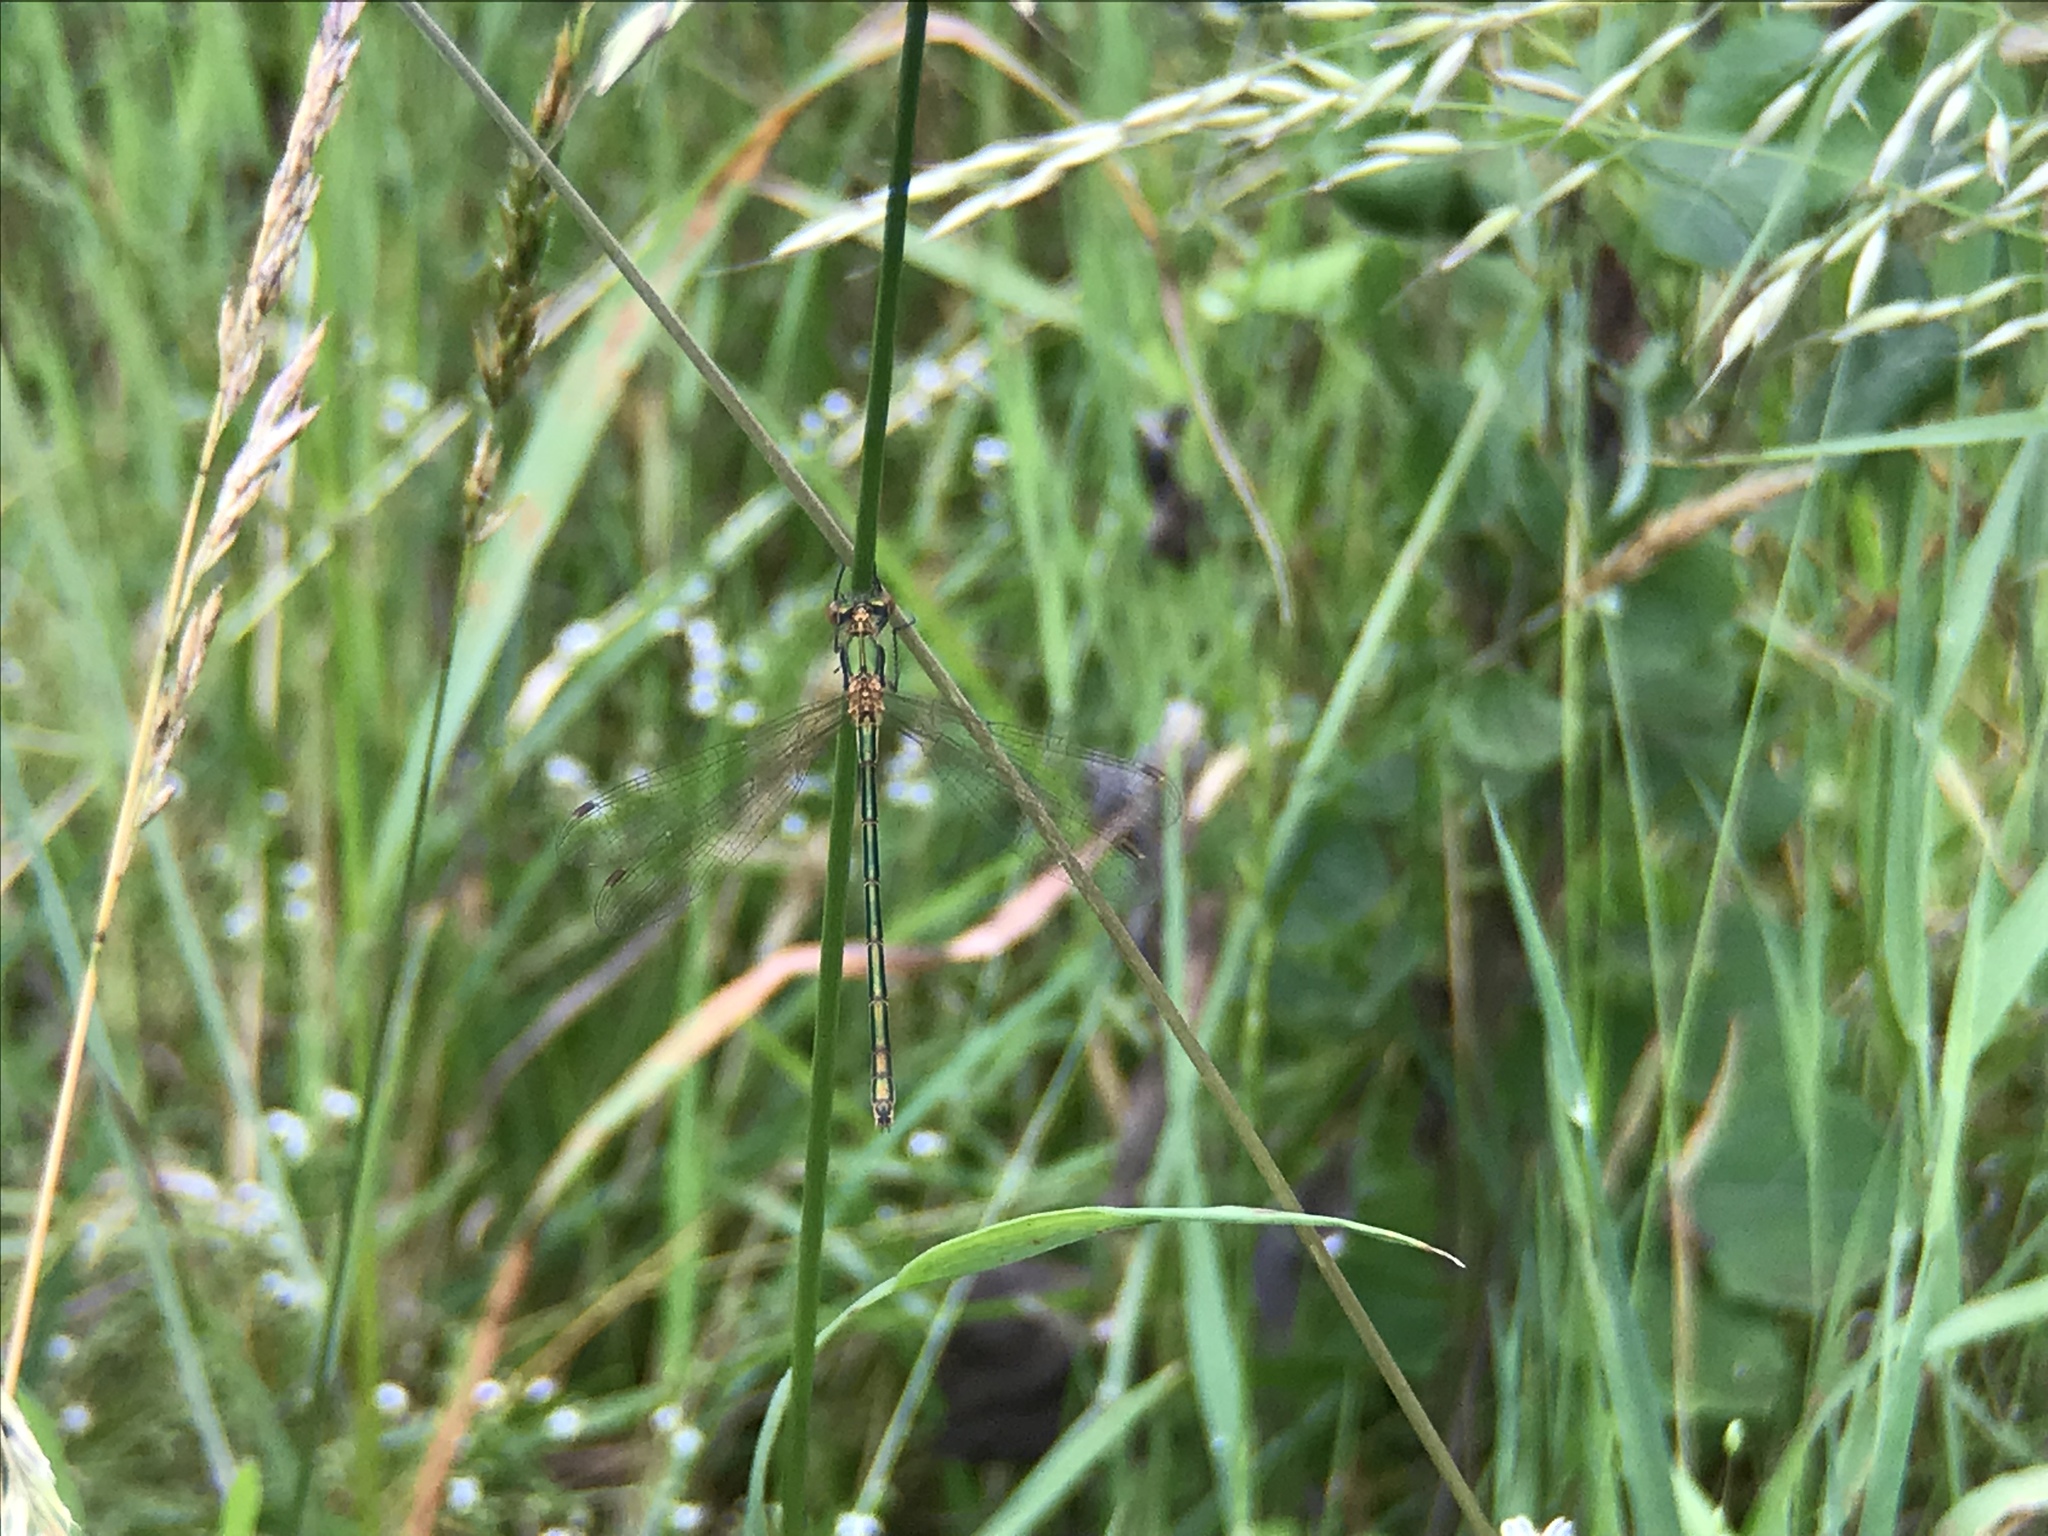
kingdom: Animalia
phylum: Arthropoda
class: Insecta
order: Odonata
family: Lestidae
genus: Lestes
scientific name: Lestes sponsa
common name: Common spreadwing
